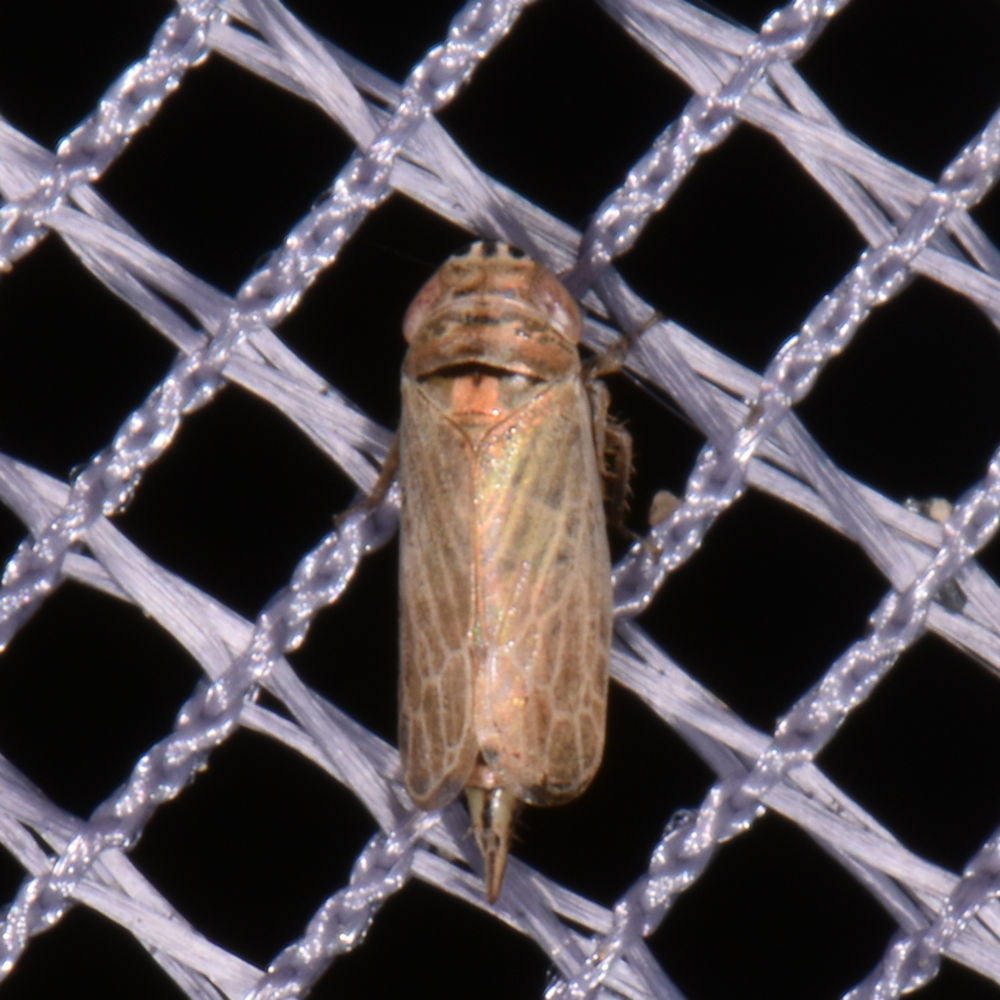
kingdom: Animalia
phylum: Arthropoda
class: Insecta
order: Hemiptera
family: Cicadellidae
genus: Doratura
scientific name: Doratura stylata
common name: Leafhopper
